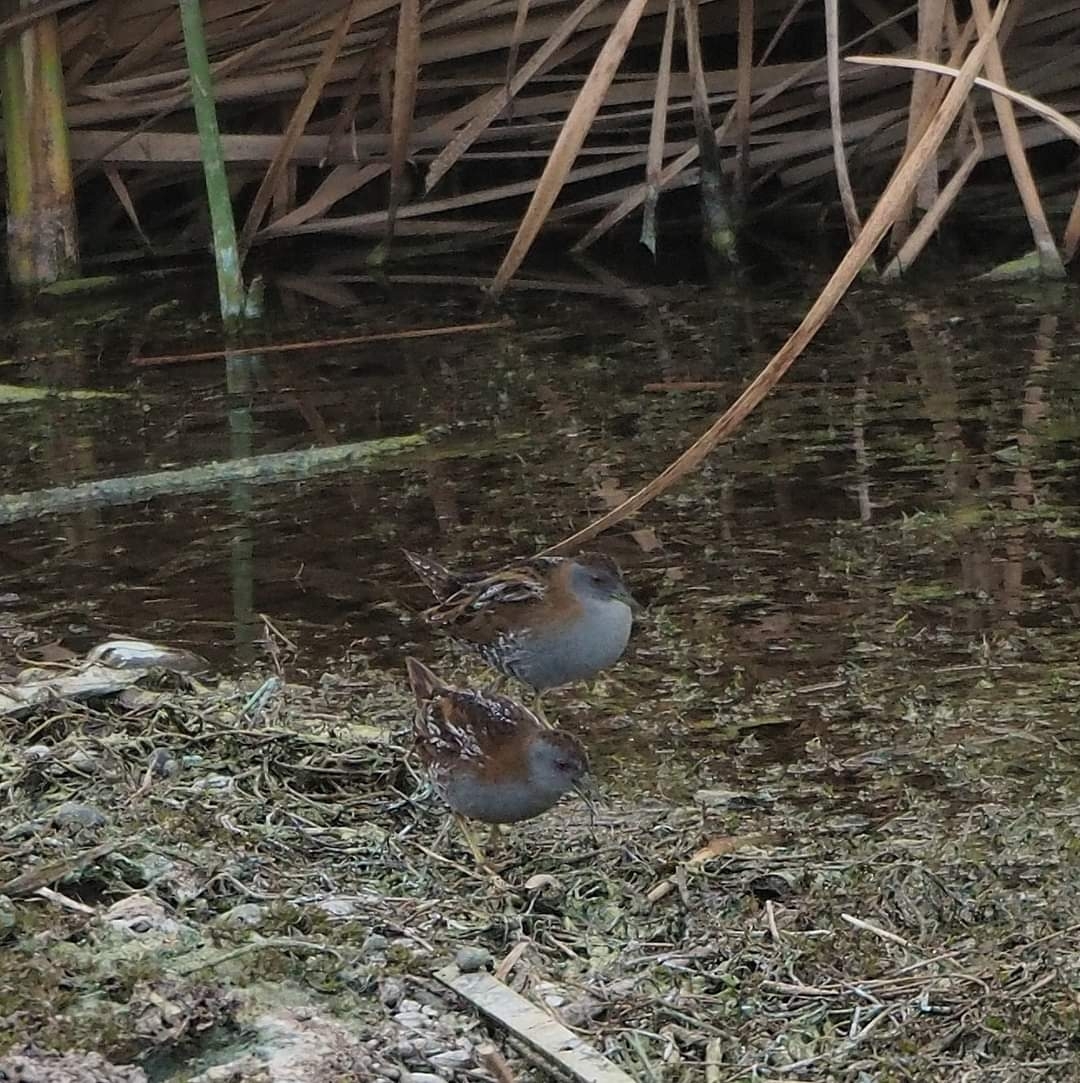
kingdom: Animalia
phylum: Chordata
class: Aves
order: Gruiformes
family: Rallidae
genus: Porzana
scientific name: Porzana pusilla
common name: Baillon's crake
